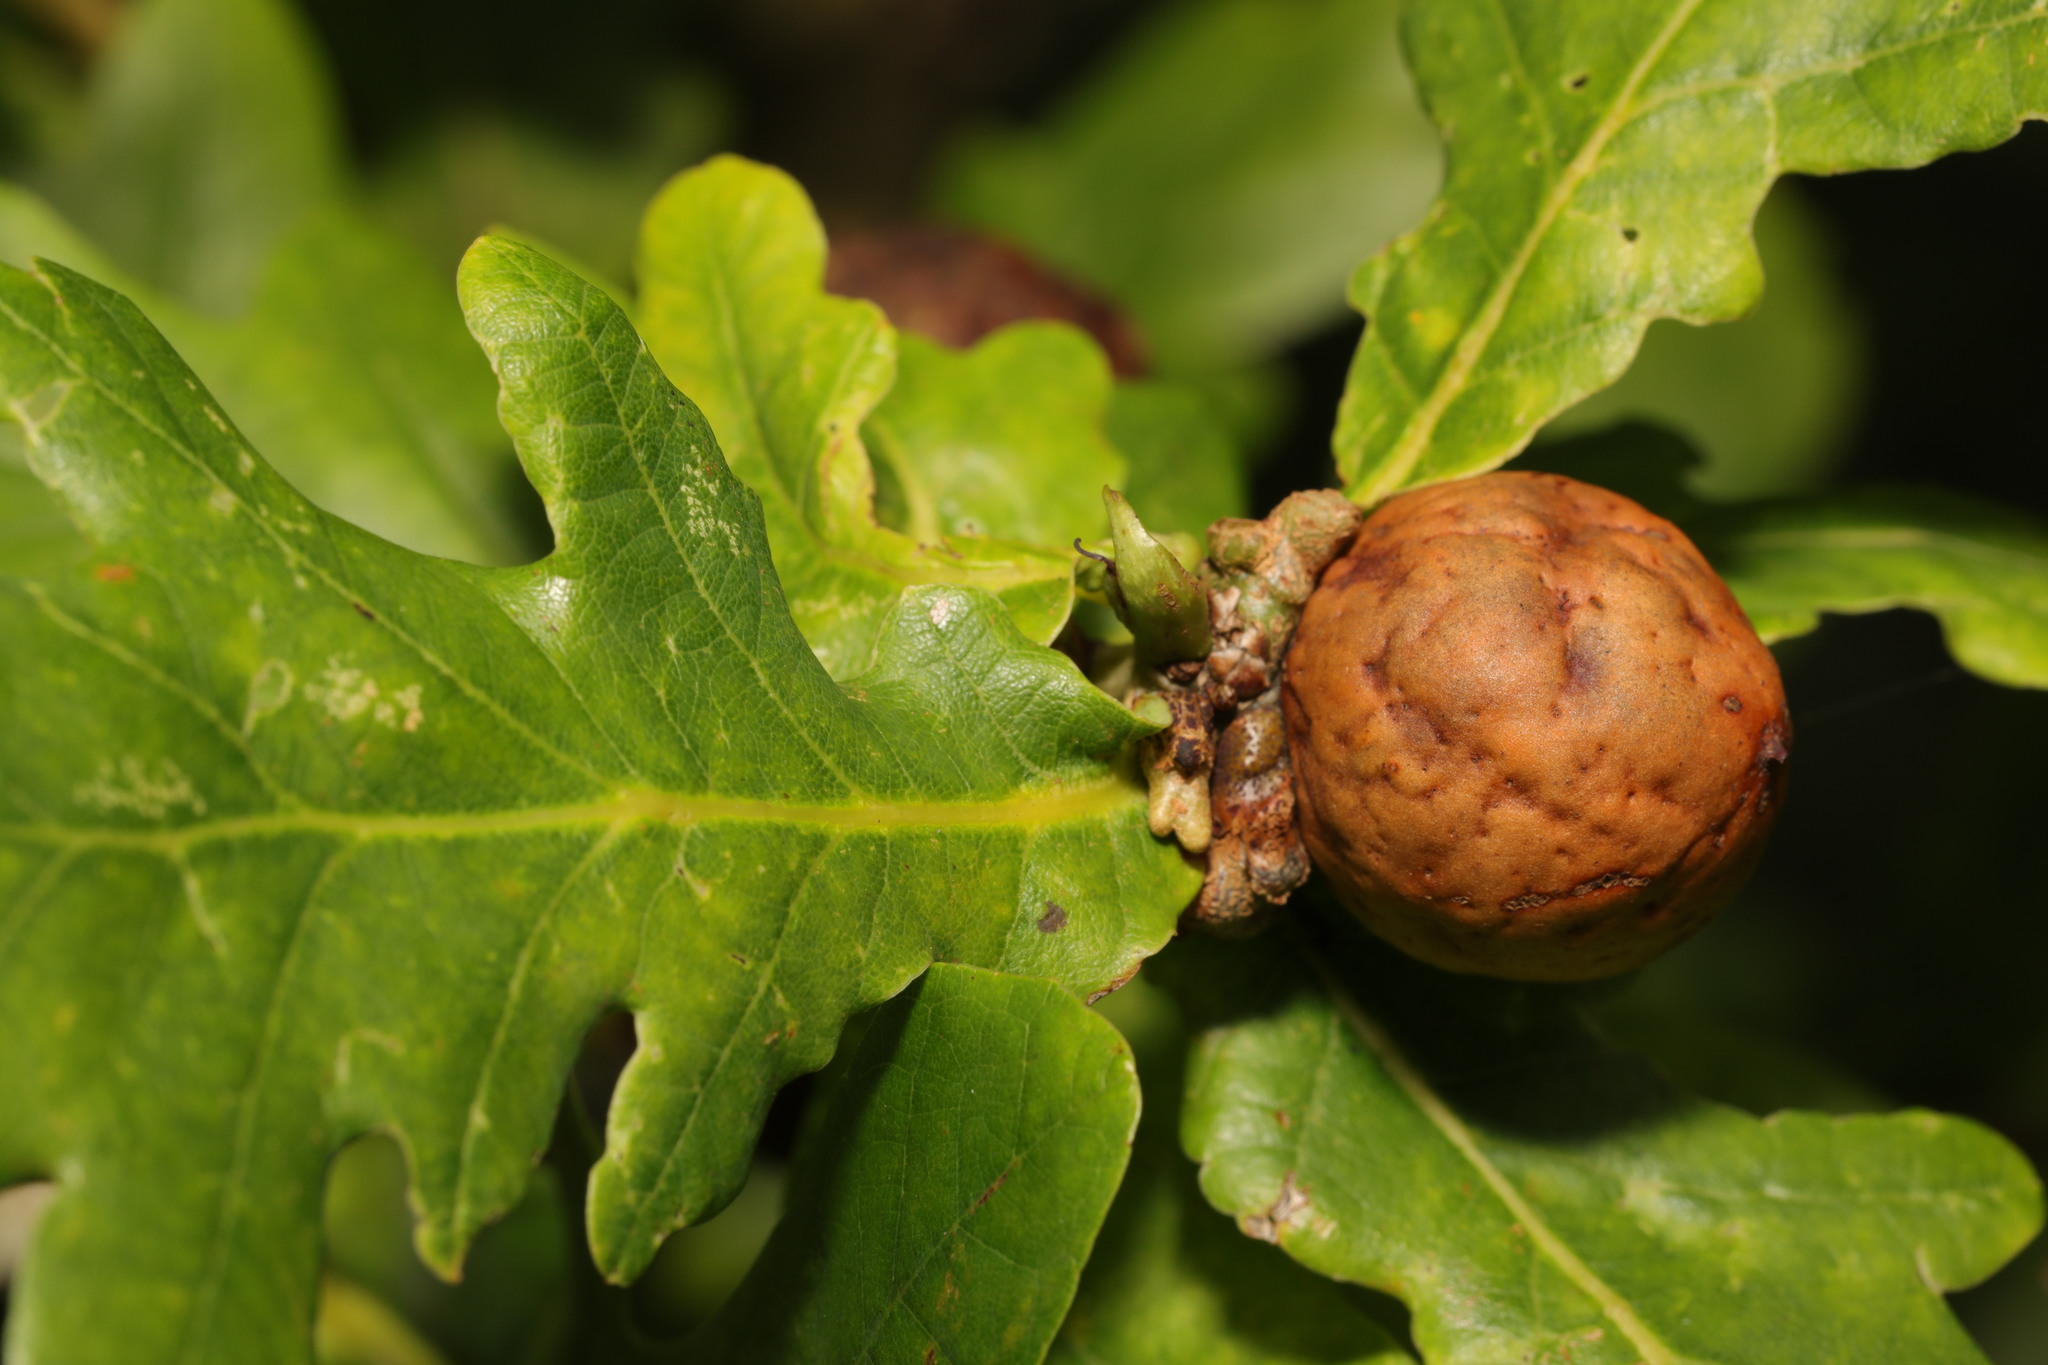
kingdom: Animalia
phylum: Arthropoda
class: Insecta
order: Hymenoptera
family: Cynipidae
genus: Andricus
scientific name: Andricus kollari
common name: Marble gall
